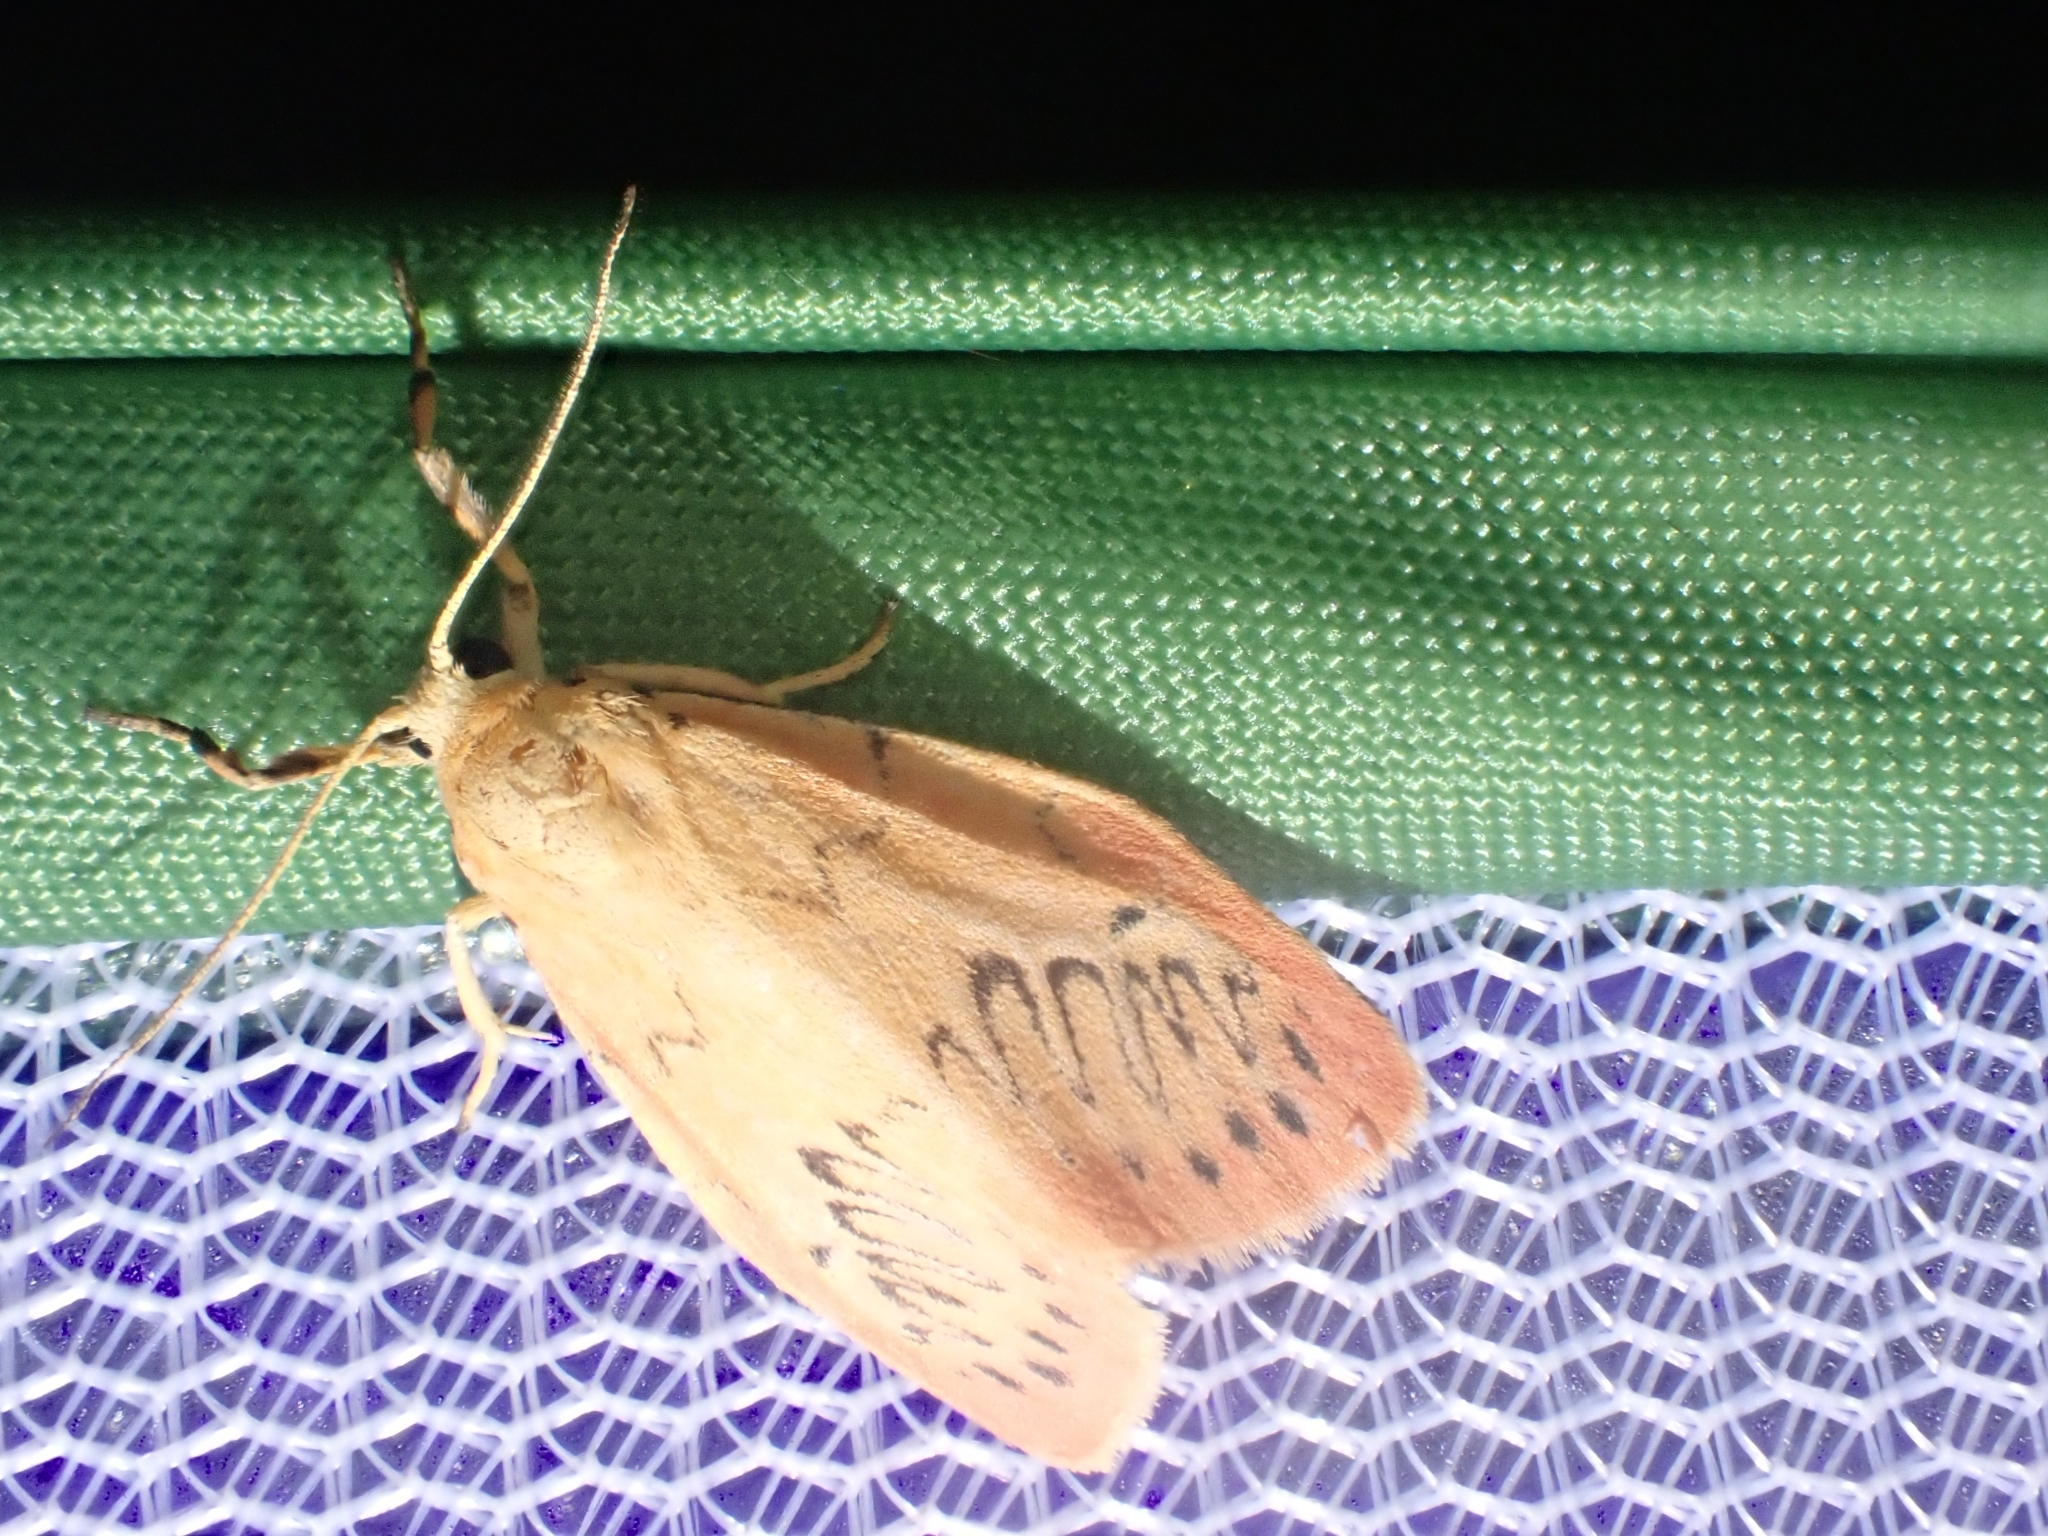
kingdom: Animalia
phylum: Arthropoda
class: Insecta
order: Lepidoptera
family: Erebidae
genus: Miltochrista
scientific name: Miltochrista miniata
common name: Rosy footman
